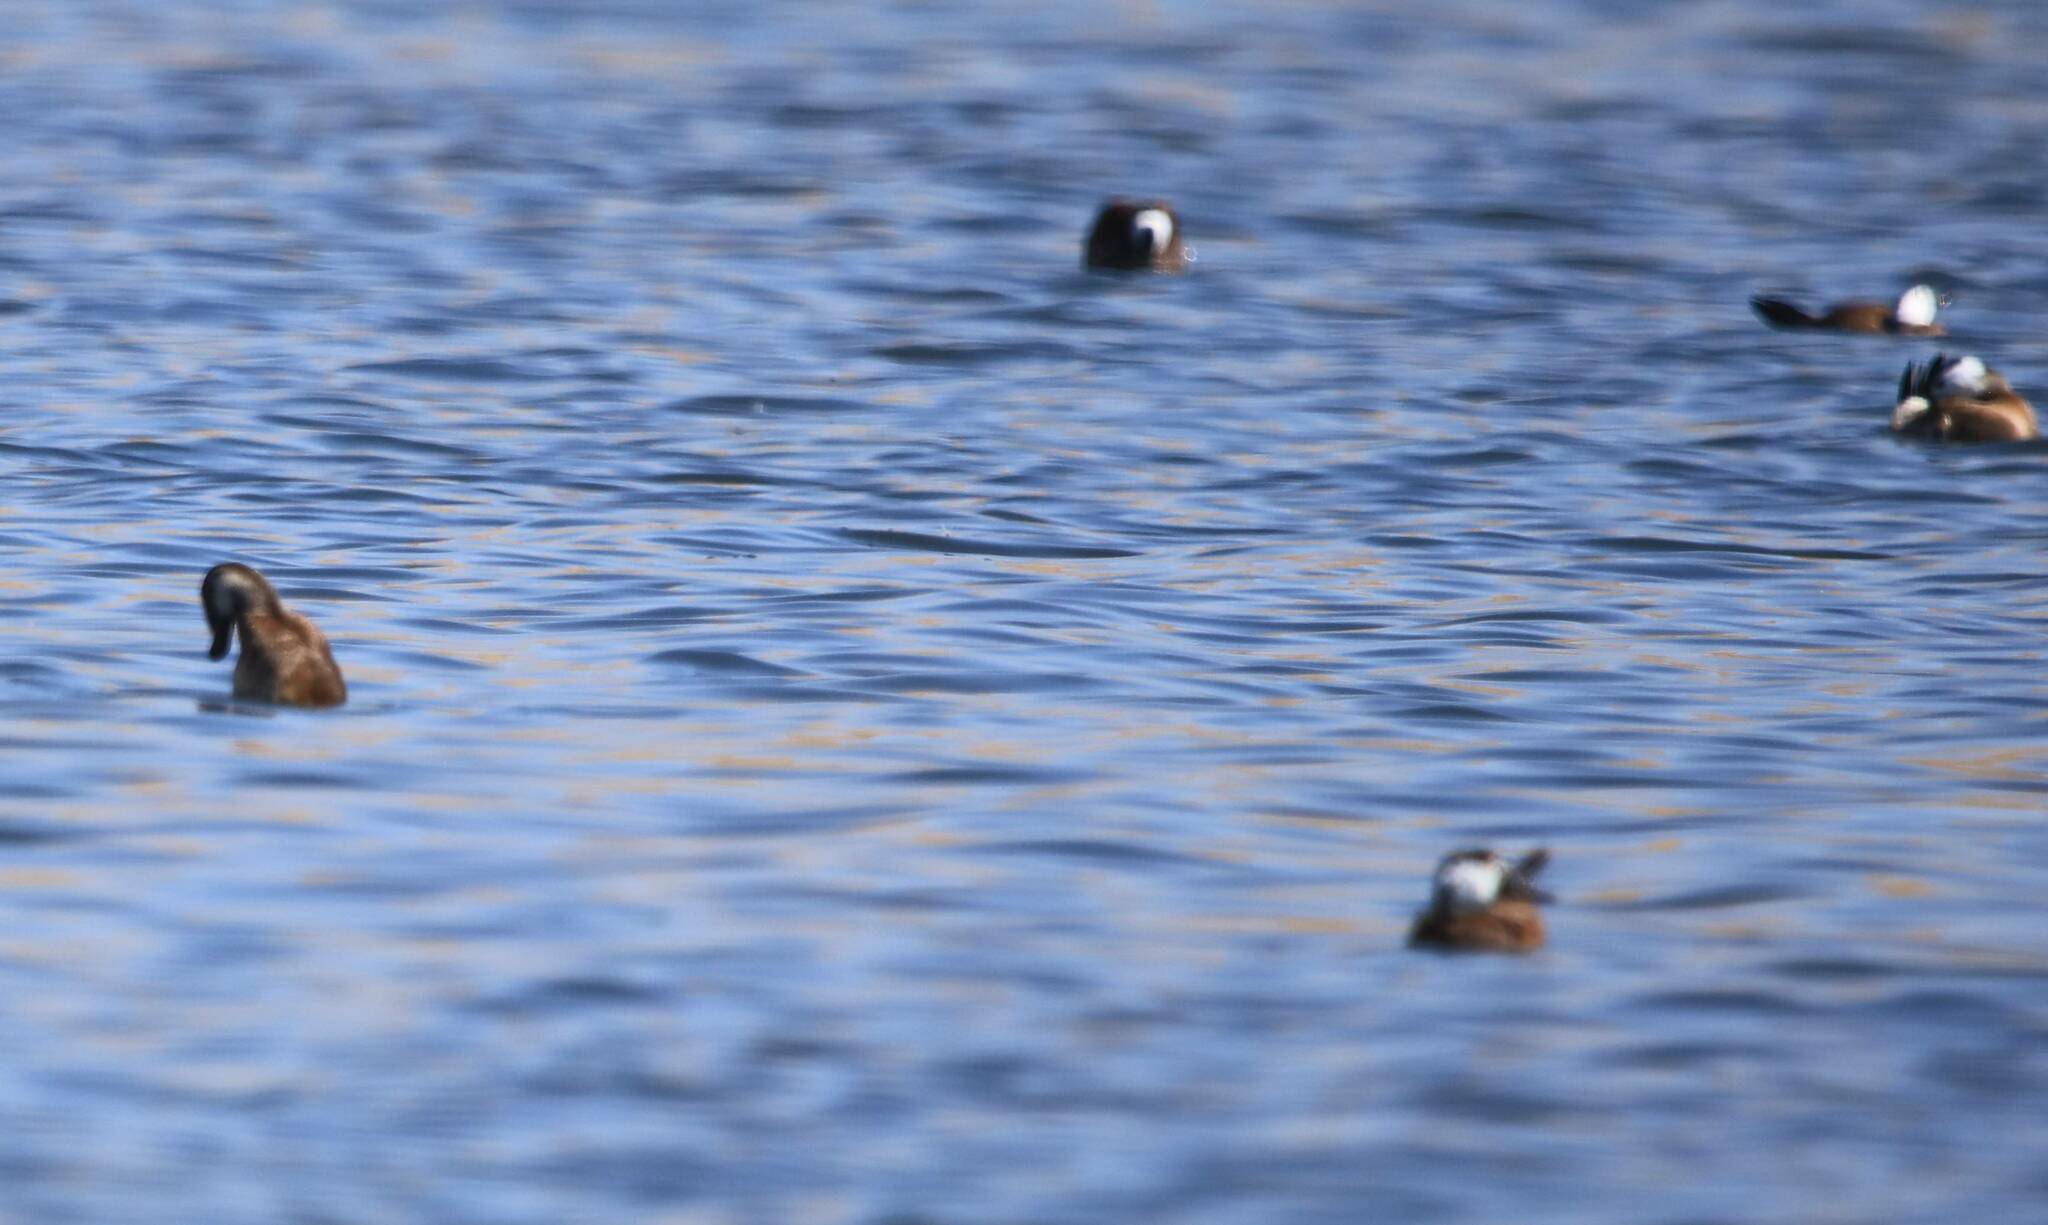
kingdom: Animalia
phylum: Chordata
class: Aves
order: Anseriformes
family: Anatidae
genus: Oxyura
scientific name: Oxyura leucocephala
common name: White-headed duck
